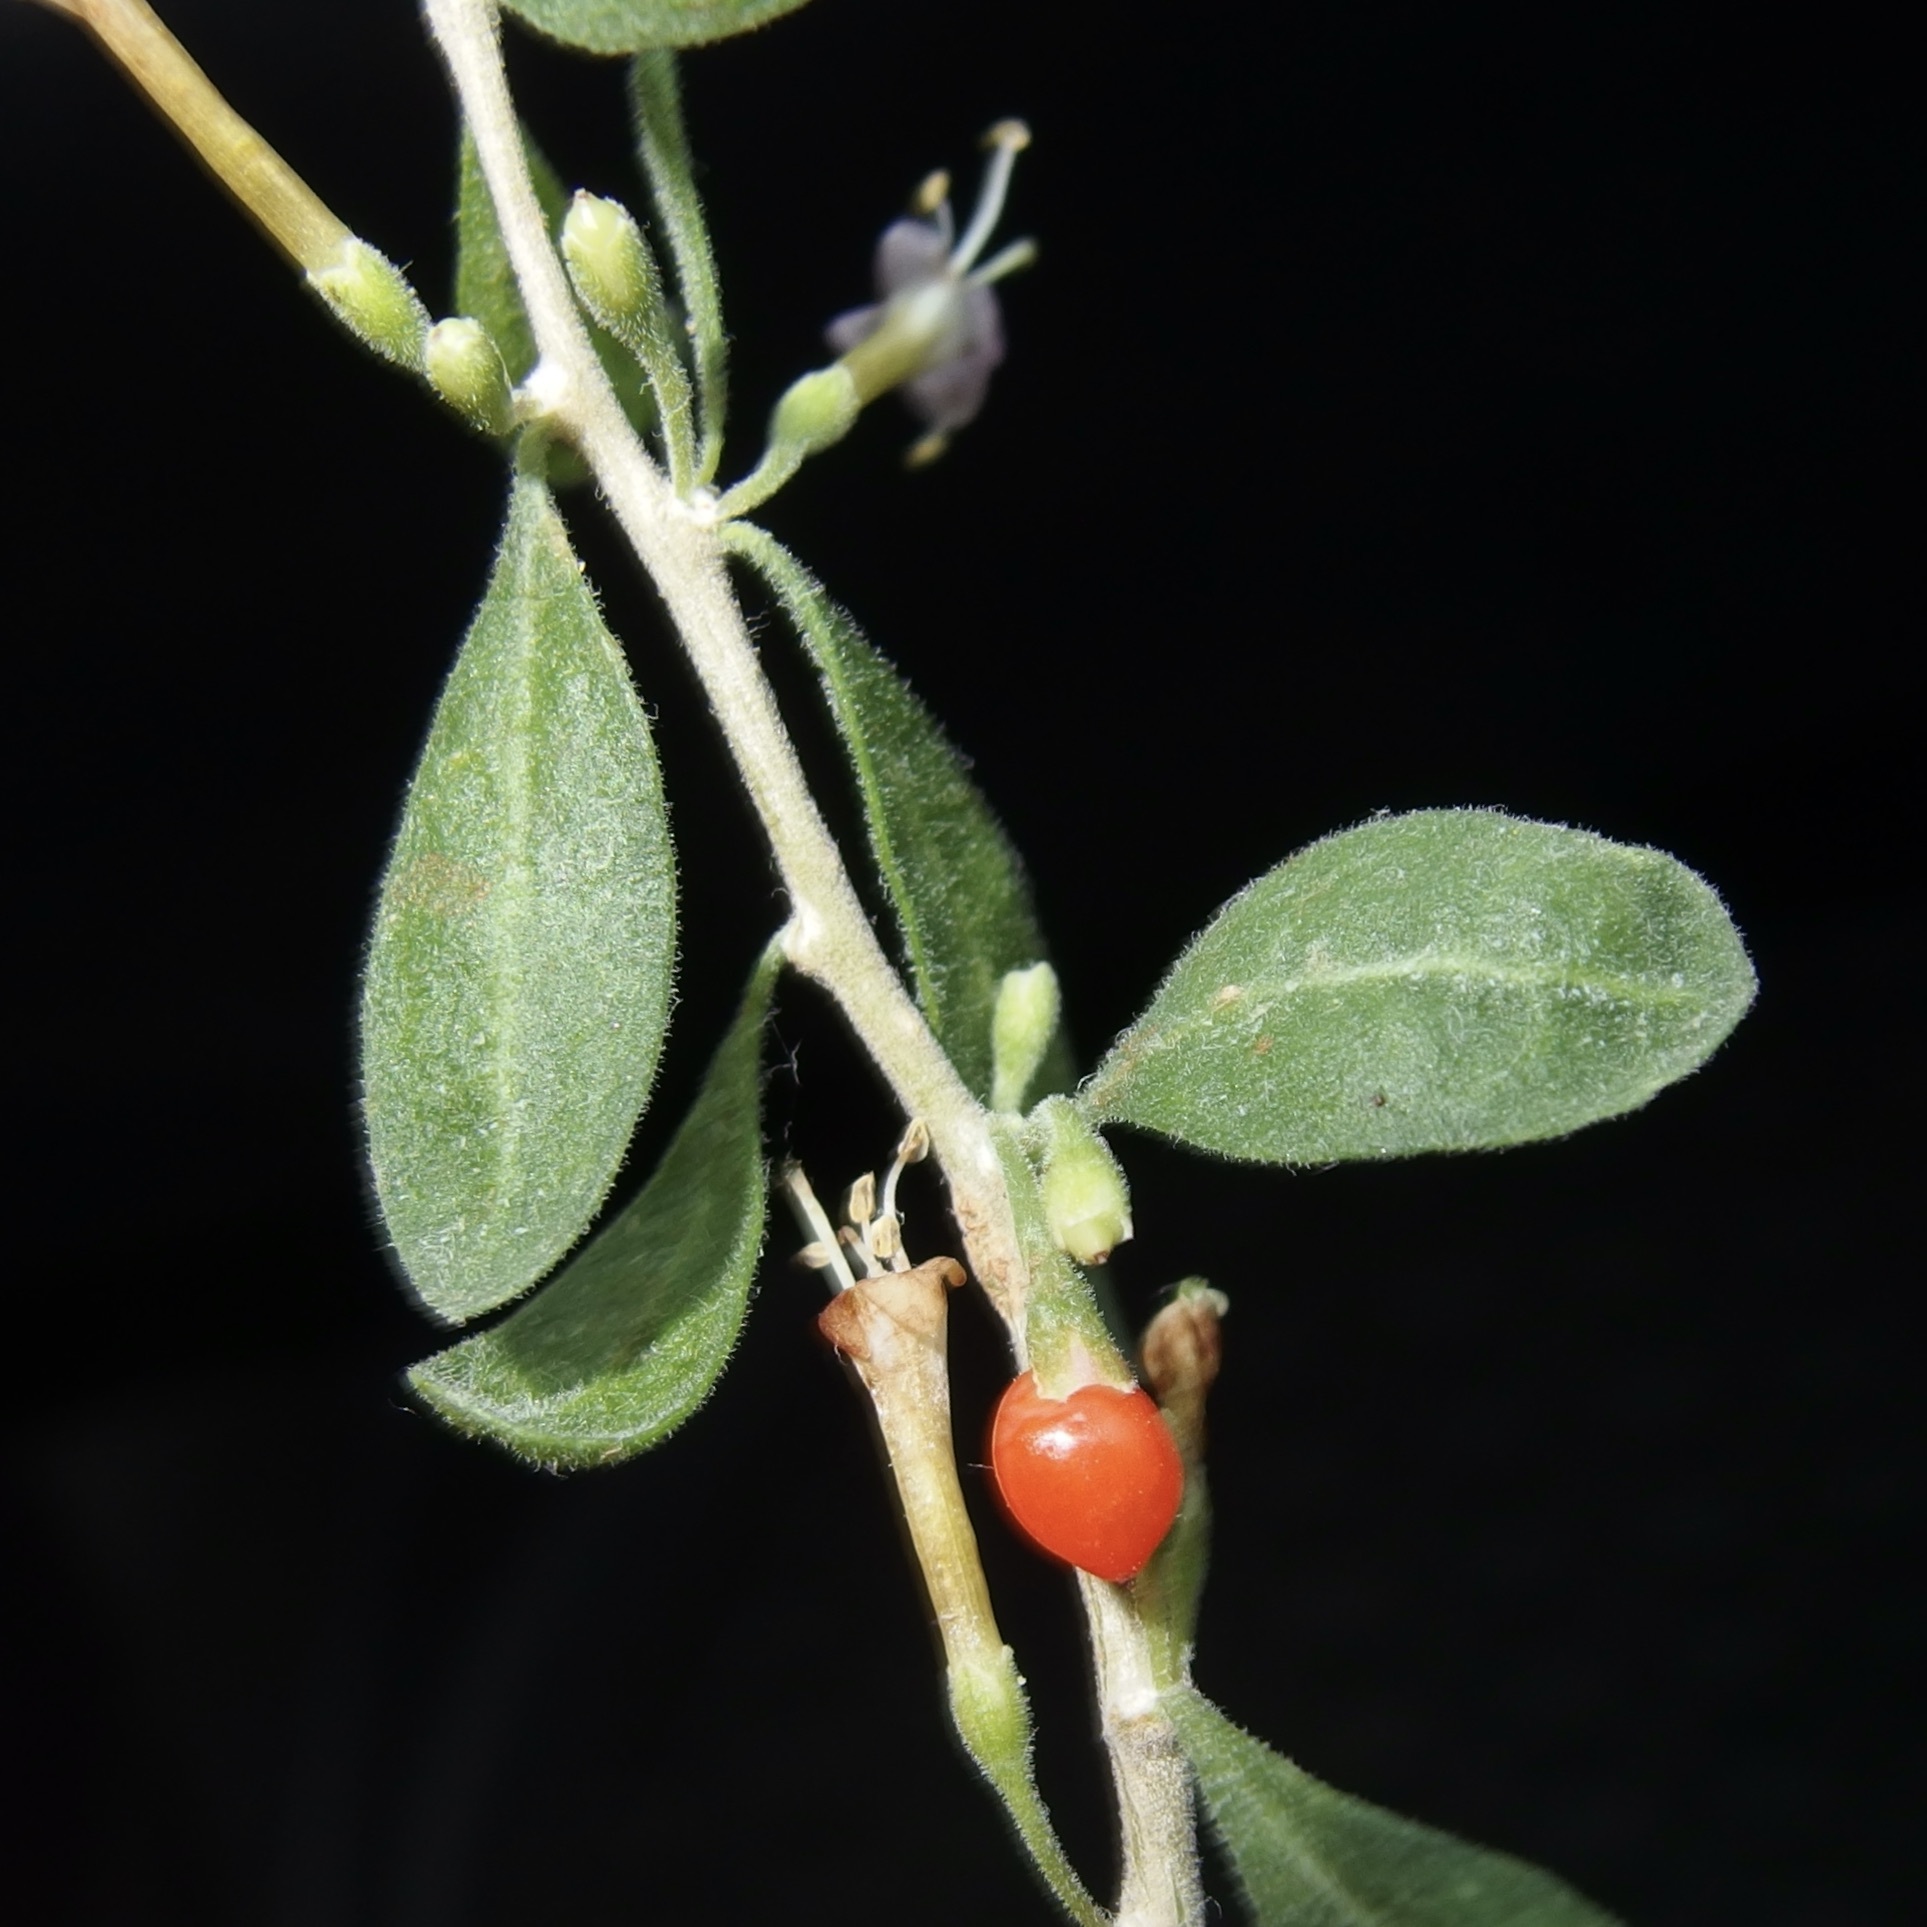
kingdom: Plantae
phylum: Tracheophyta
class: Magnoliopsida
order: Solanales
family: Solanaceae
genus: Lycium
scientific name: Lycium andersonii
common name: Water-jacket
